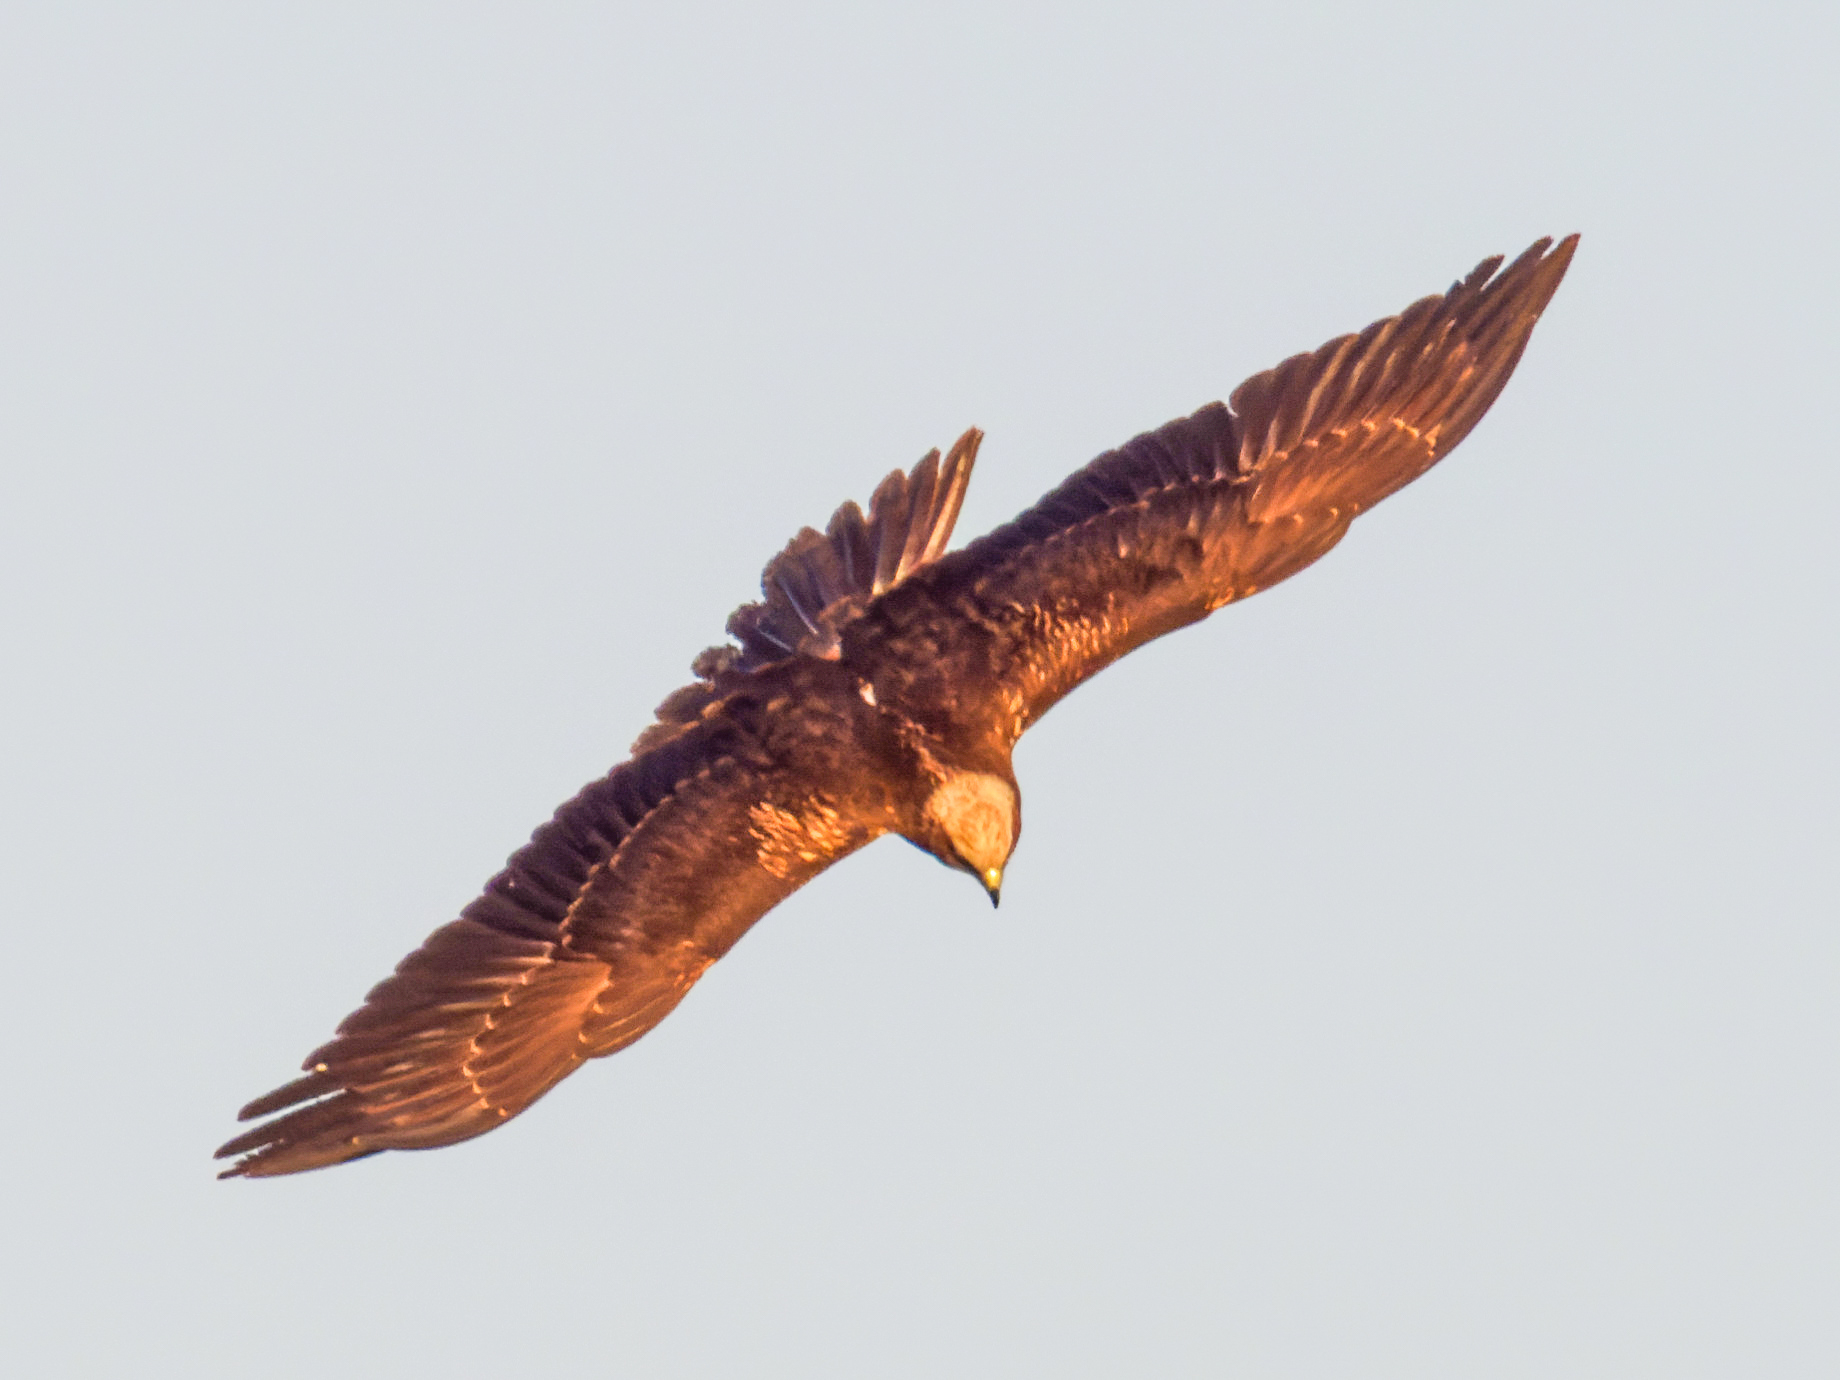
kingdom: Animalia
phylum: Chordata
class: Aves
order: Accipitriformes
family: Accipitridae
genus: Circus
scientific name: Circus aeruginosus
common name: Western marsh harrier
